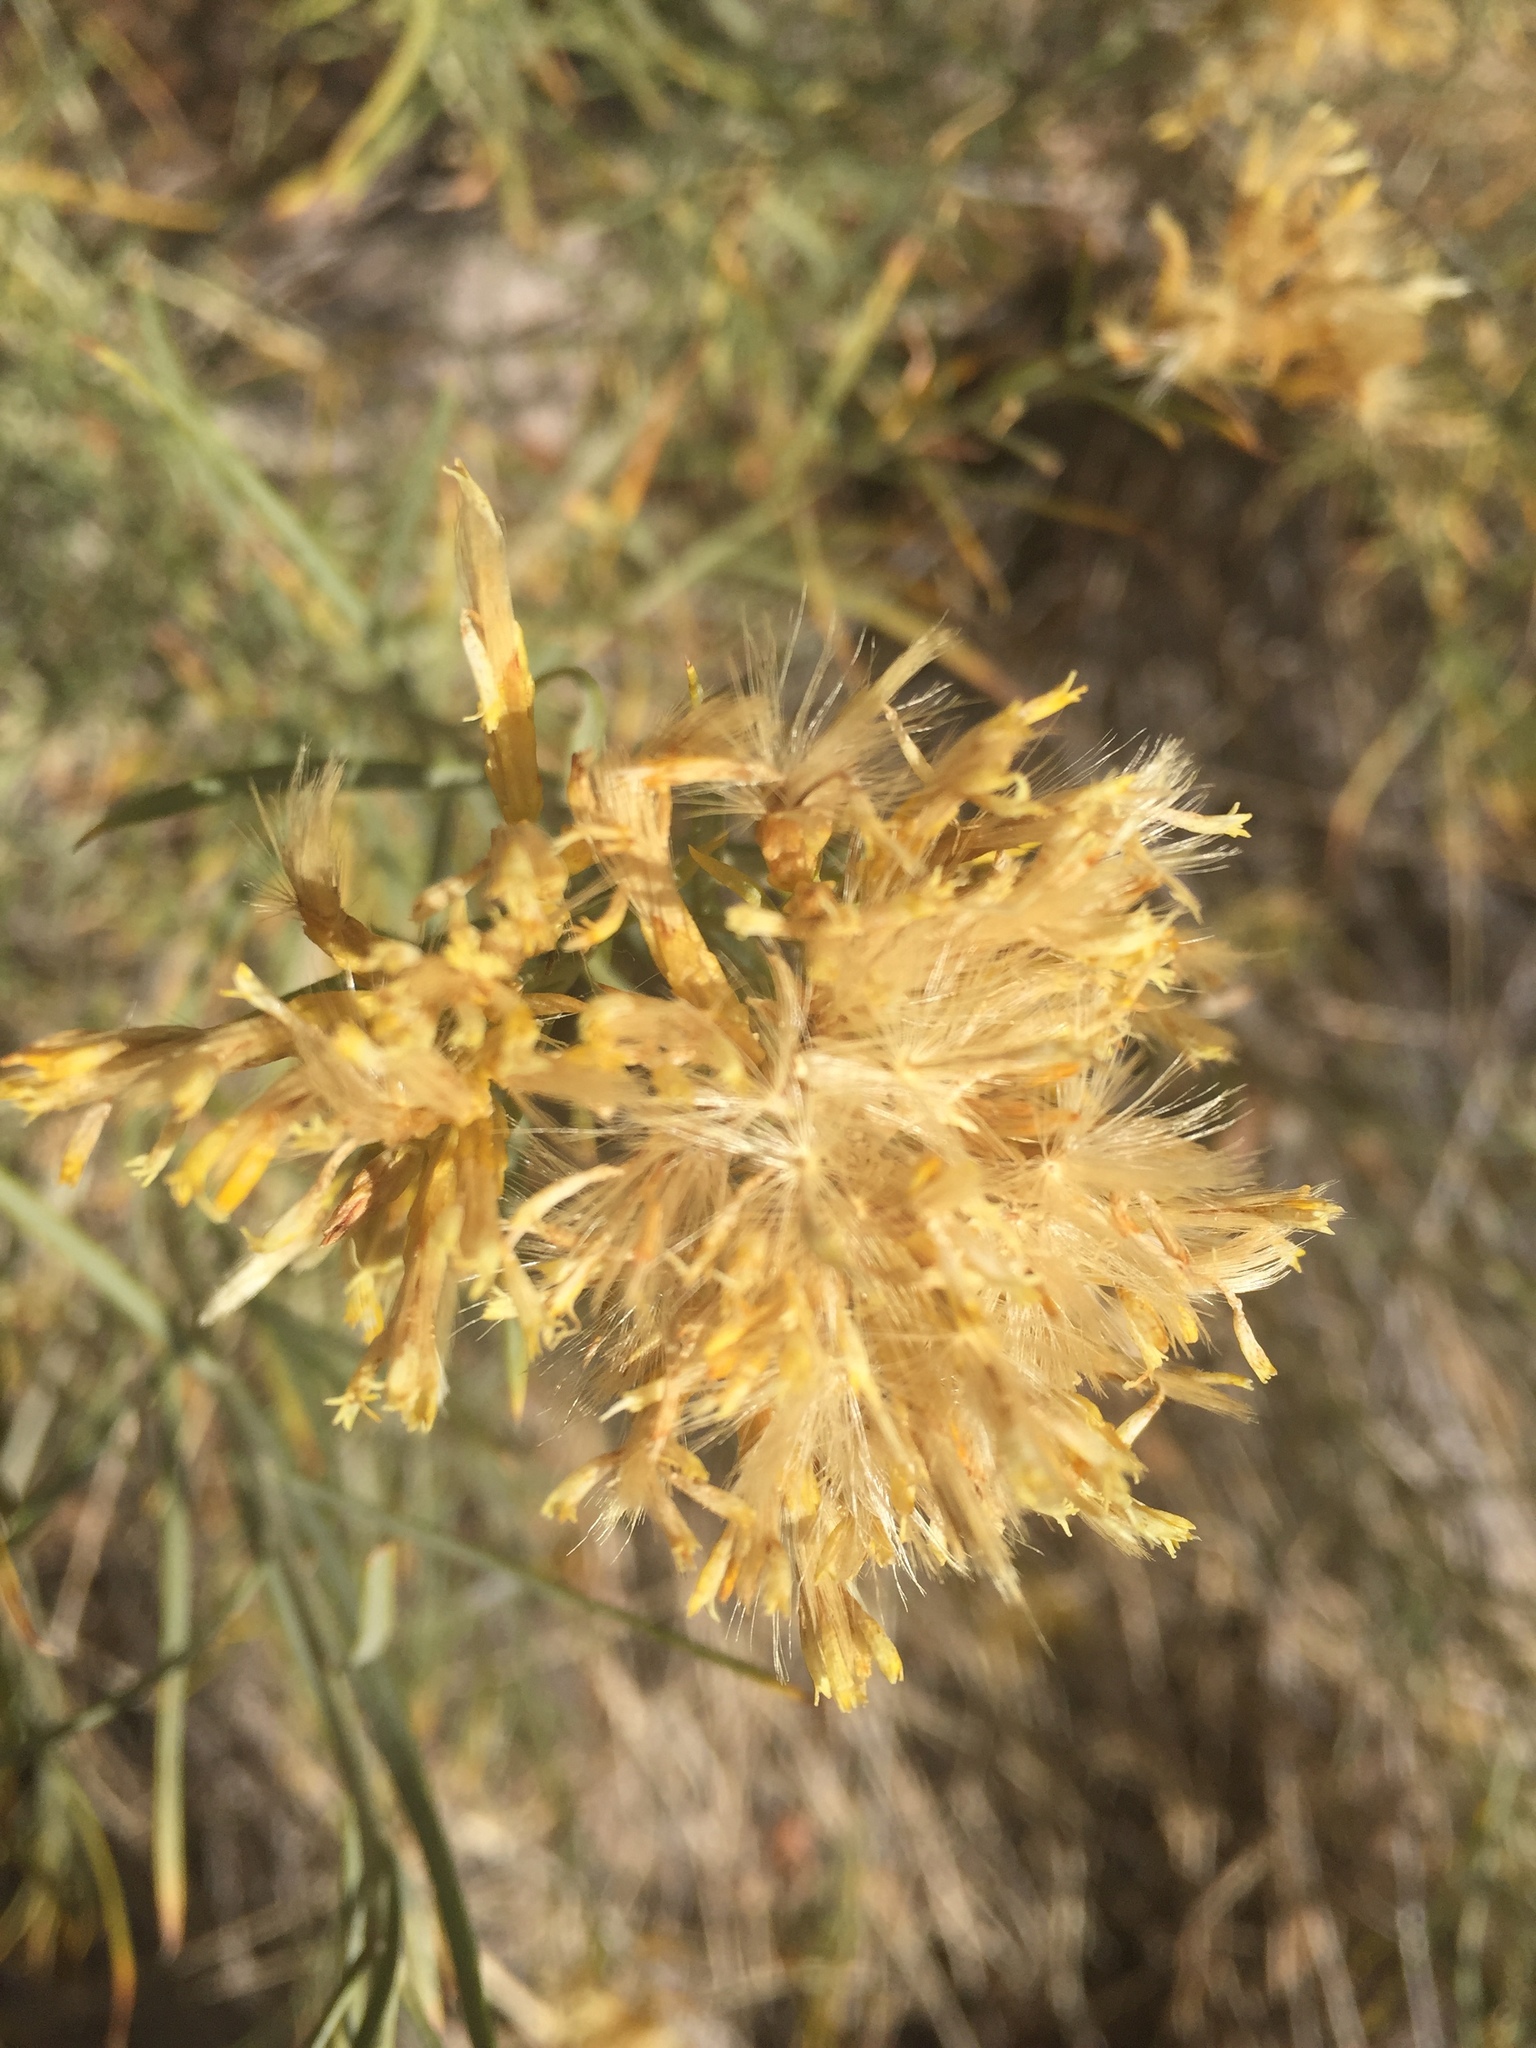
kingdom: Plantae
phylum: Tracheophyta
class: Magnoliopsida
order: Asterales
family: Asteraceae
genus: Chrysothamnus
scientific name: Chrysothamnus viscidiflorus
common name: Yellow rabbitbrush
